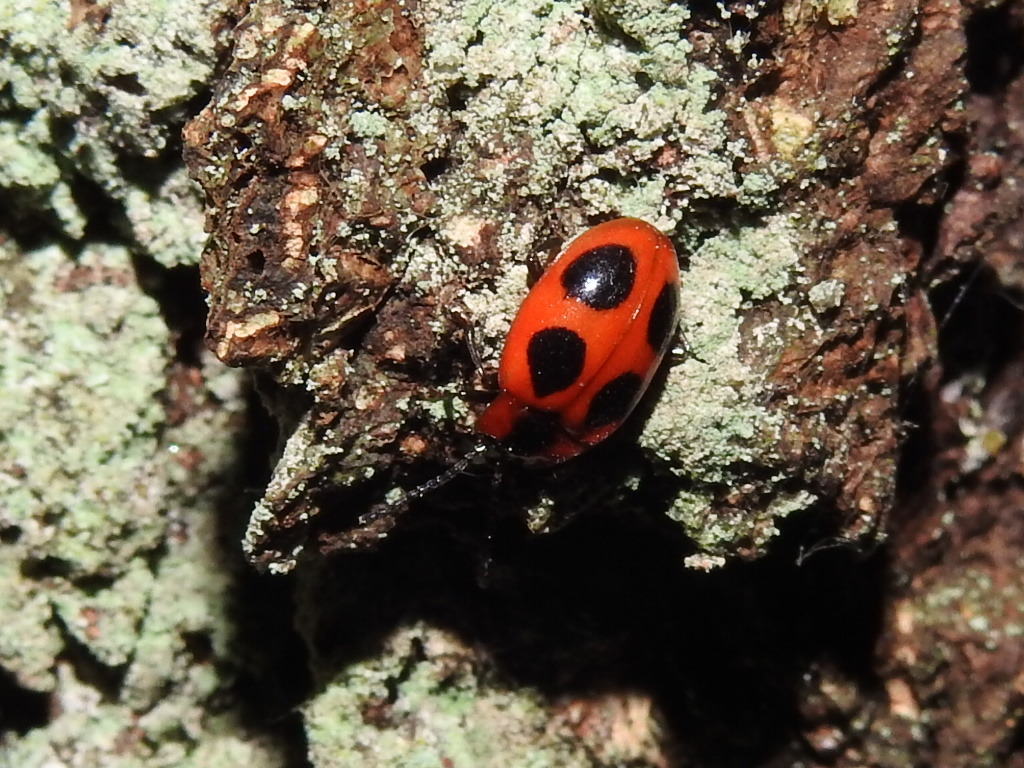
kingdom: Animalia
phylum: Arthropoda
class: Insecta
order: Coleoptera
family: Endomychidae
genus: Endomychus
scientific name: Endomychus coccineus
